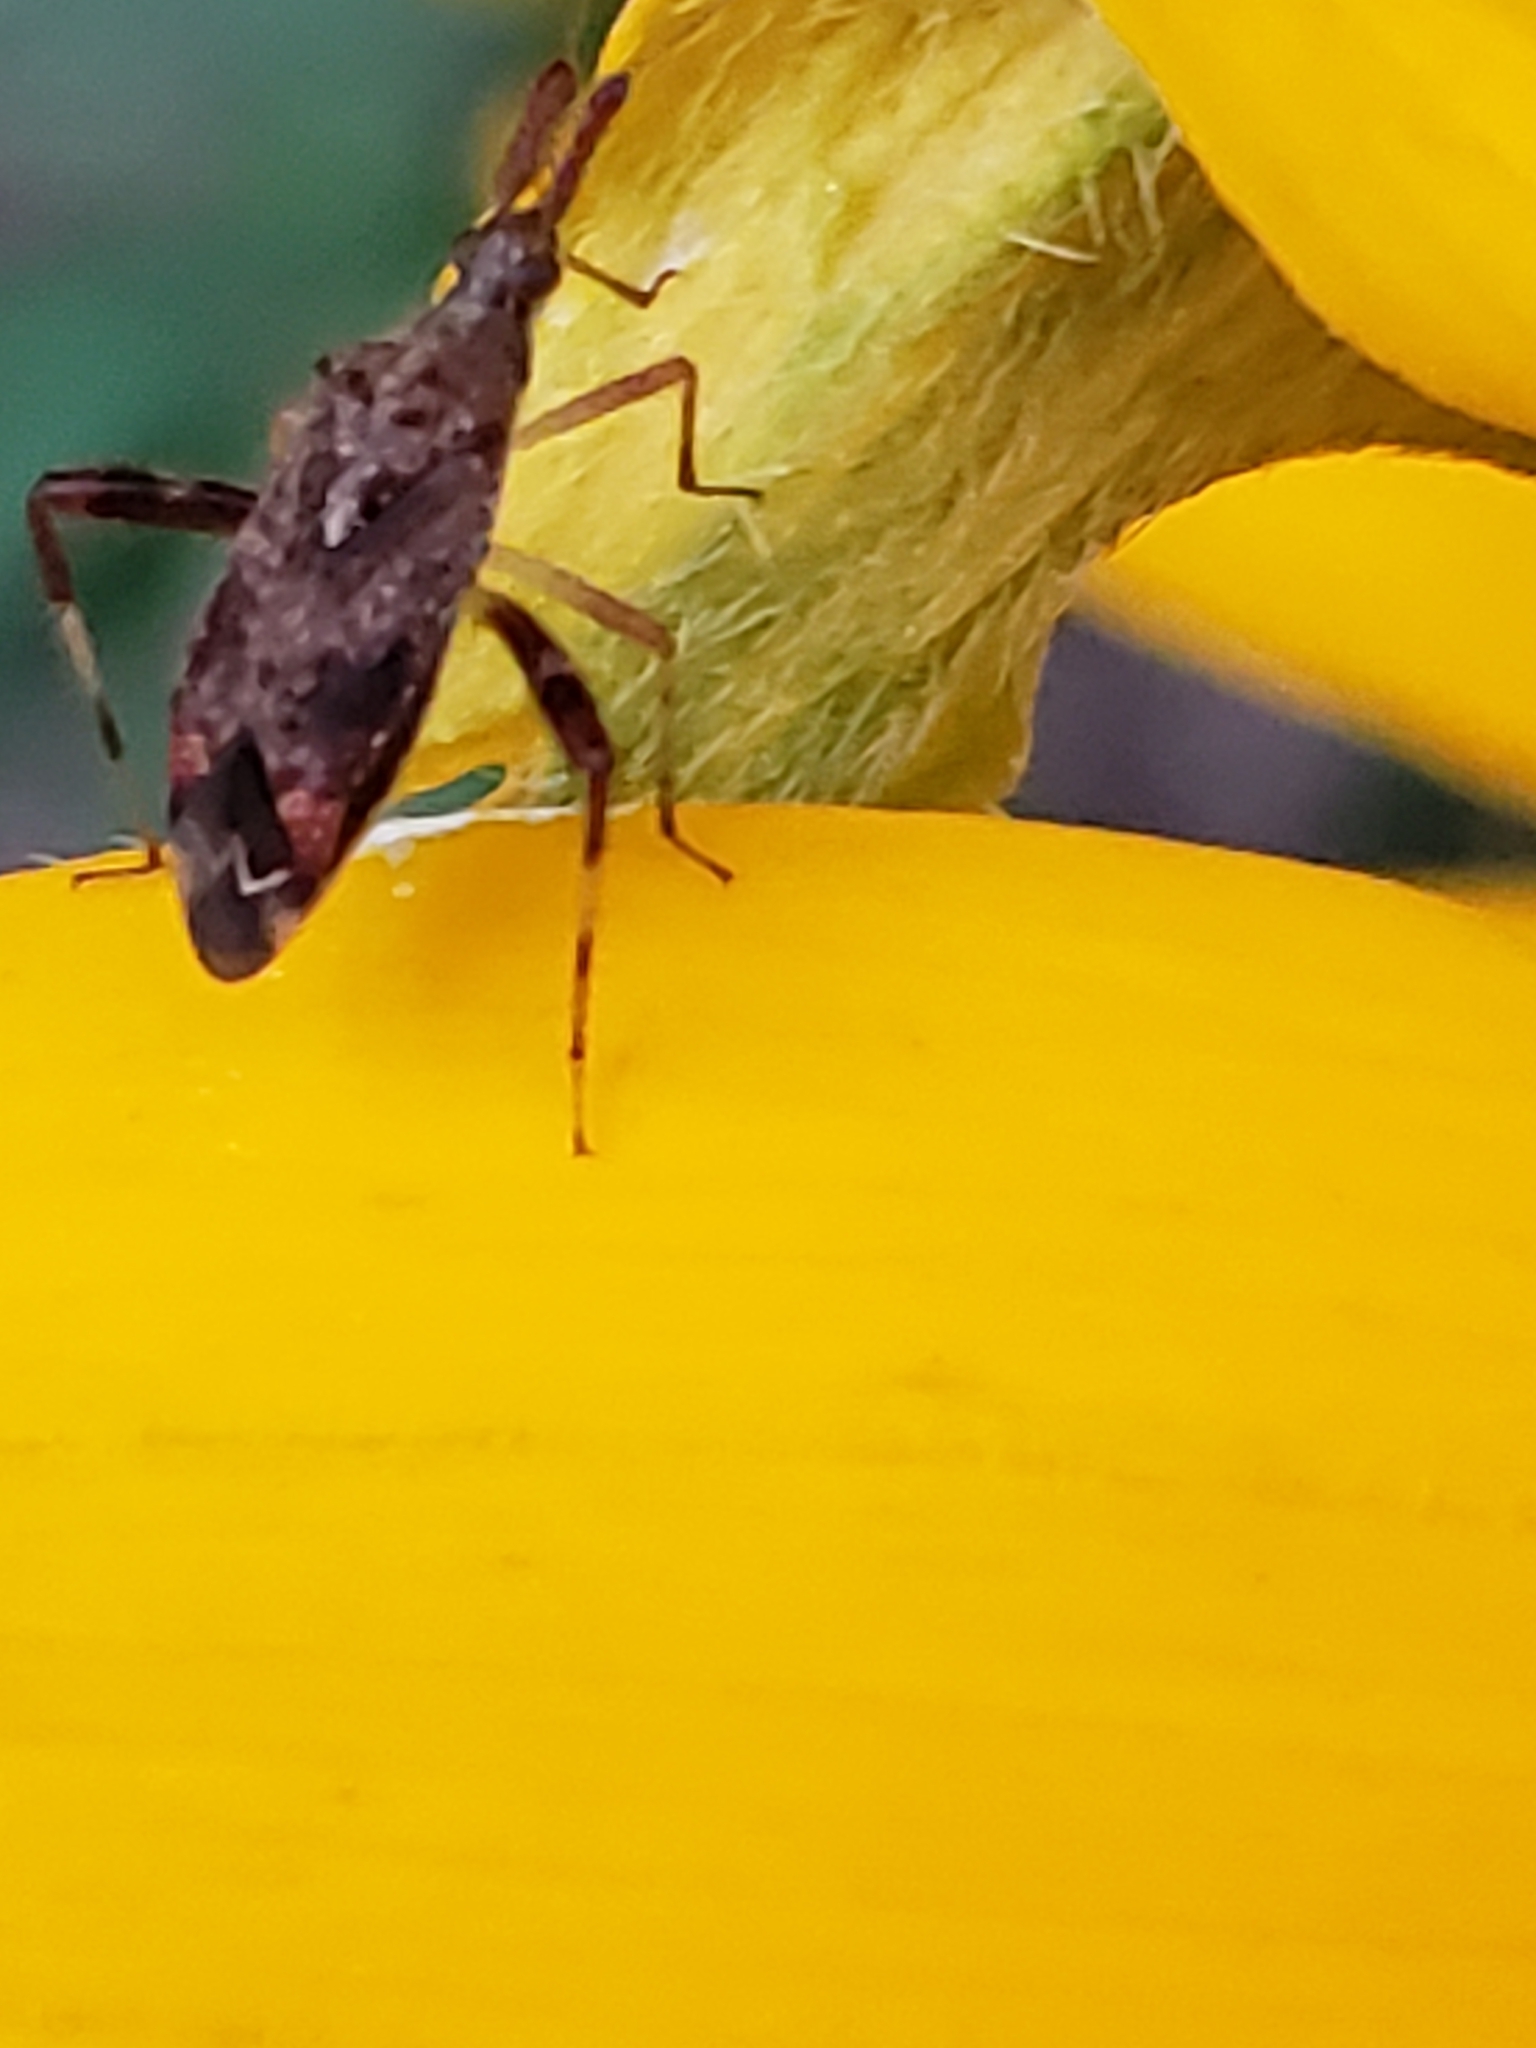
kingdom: Animalia
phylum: Arthropoda
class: Insecta
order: Hemiptera
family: Miridae
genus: Neurocolpus
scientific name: Neurocolpus nubilus
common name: Clouded plant bug
